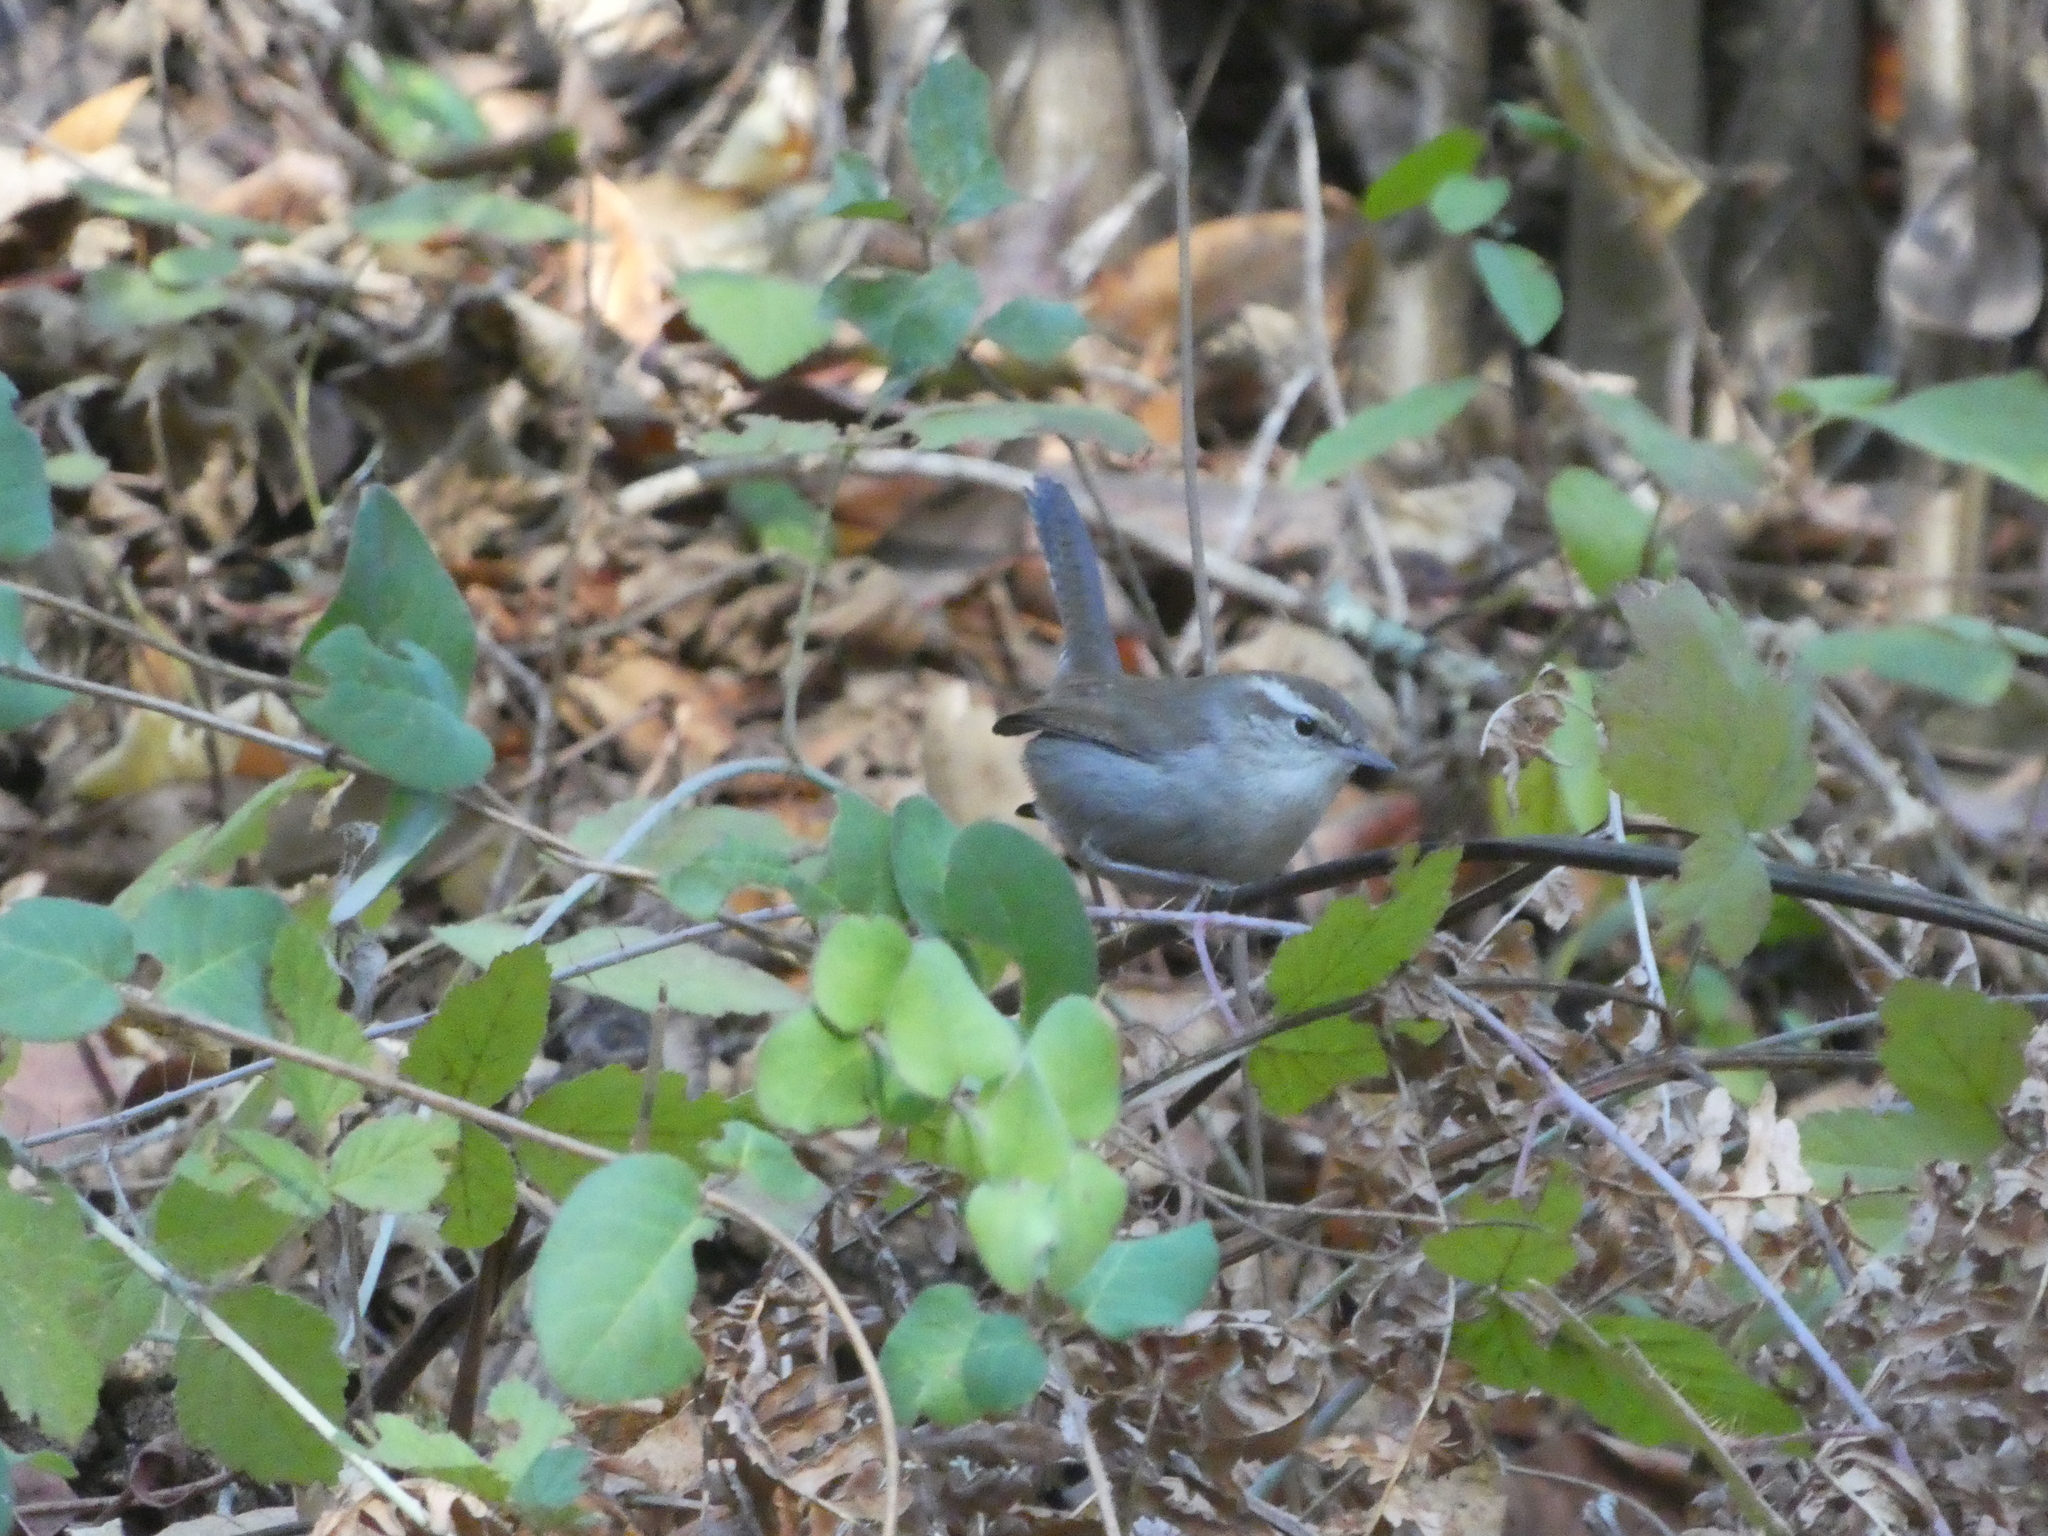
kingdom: Animalia
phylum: Chordata
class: Aves
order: Passeriformes
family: Troglodytidae
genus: Thryomanes
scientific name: Thryomanes bewickii
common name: Bewick's wren
